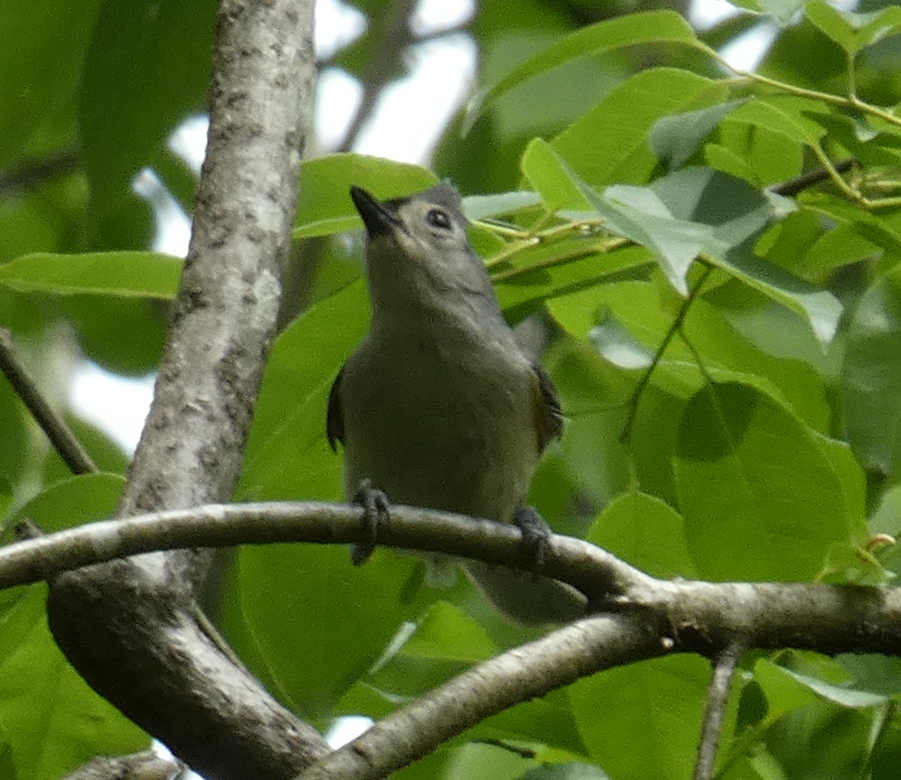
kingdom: Animalia
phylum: Chordata
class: Aves
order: Passeriformes
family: Paridae
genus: Baeolophus
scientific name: Baeolophus bicolor
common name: Tufted titmouse
